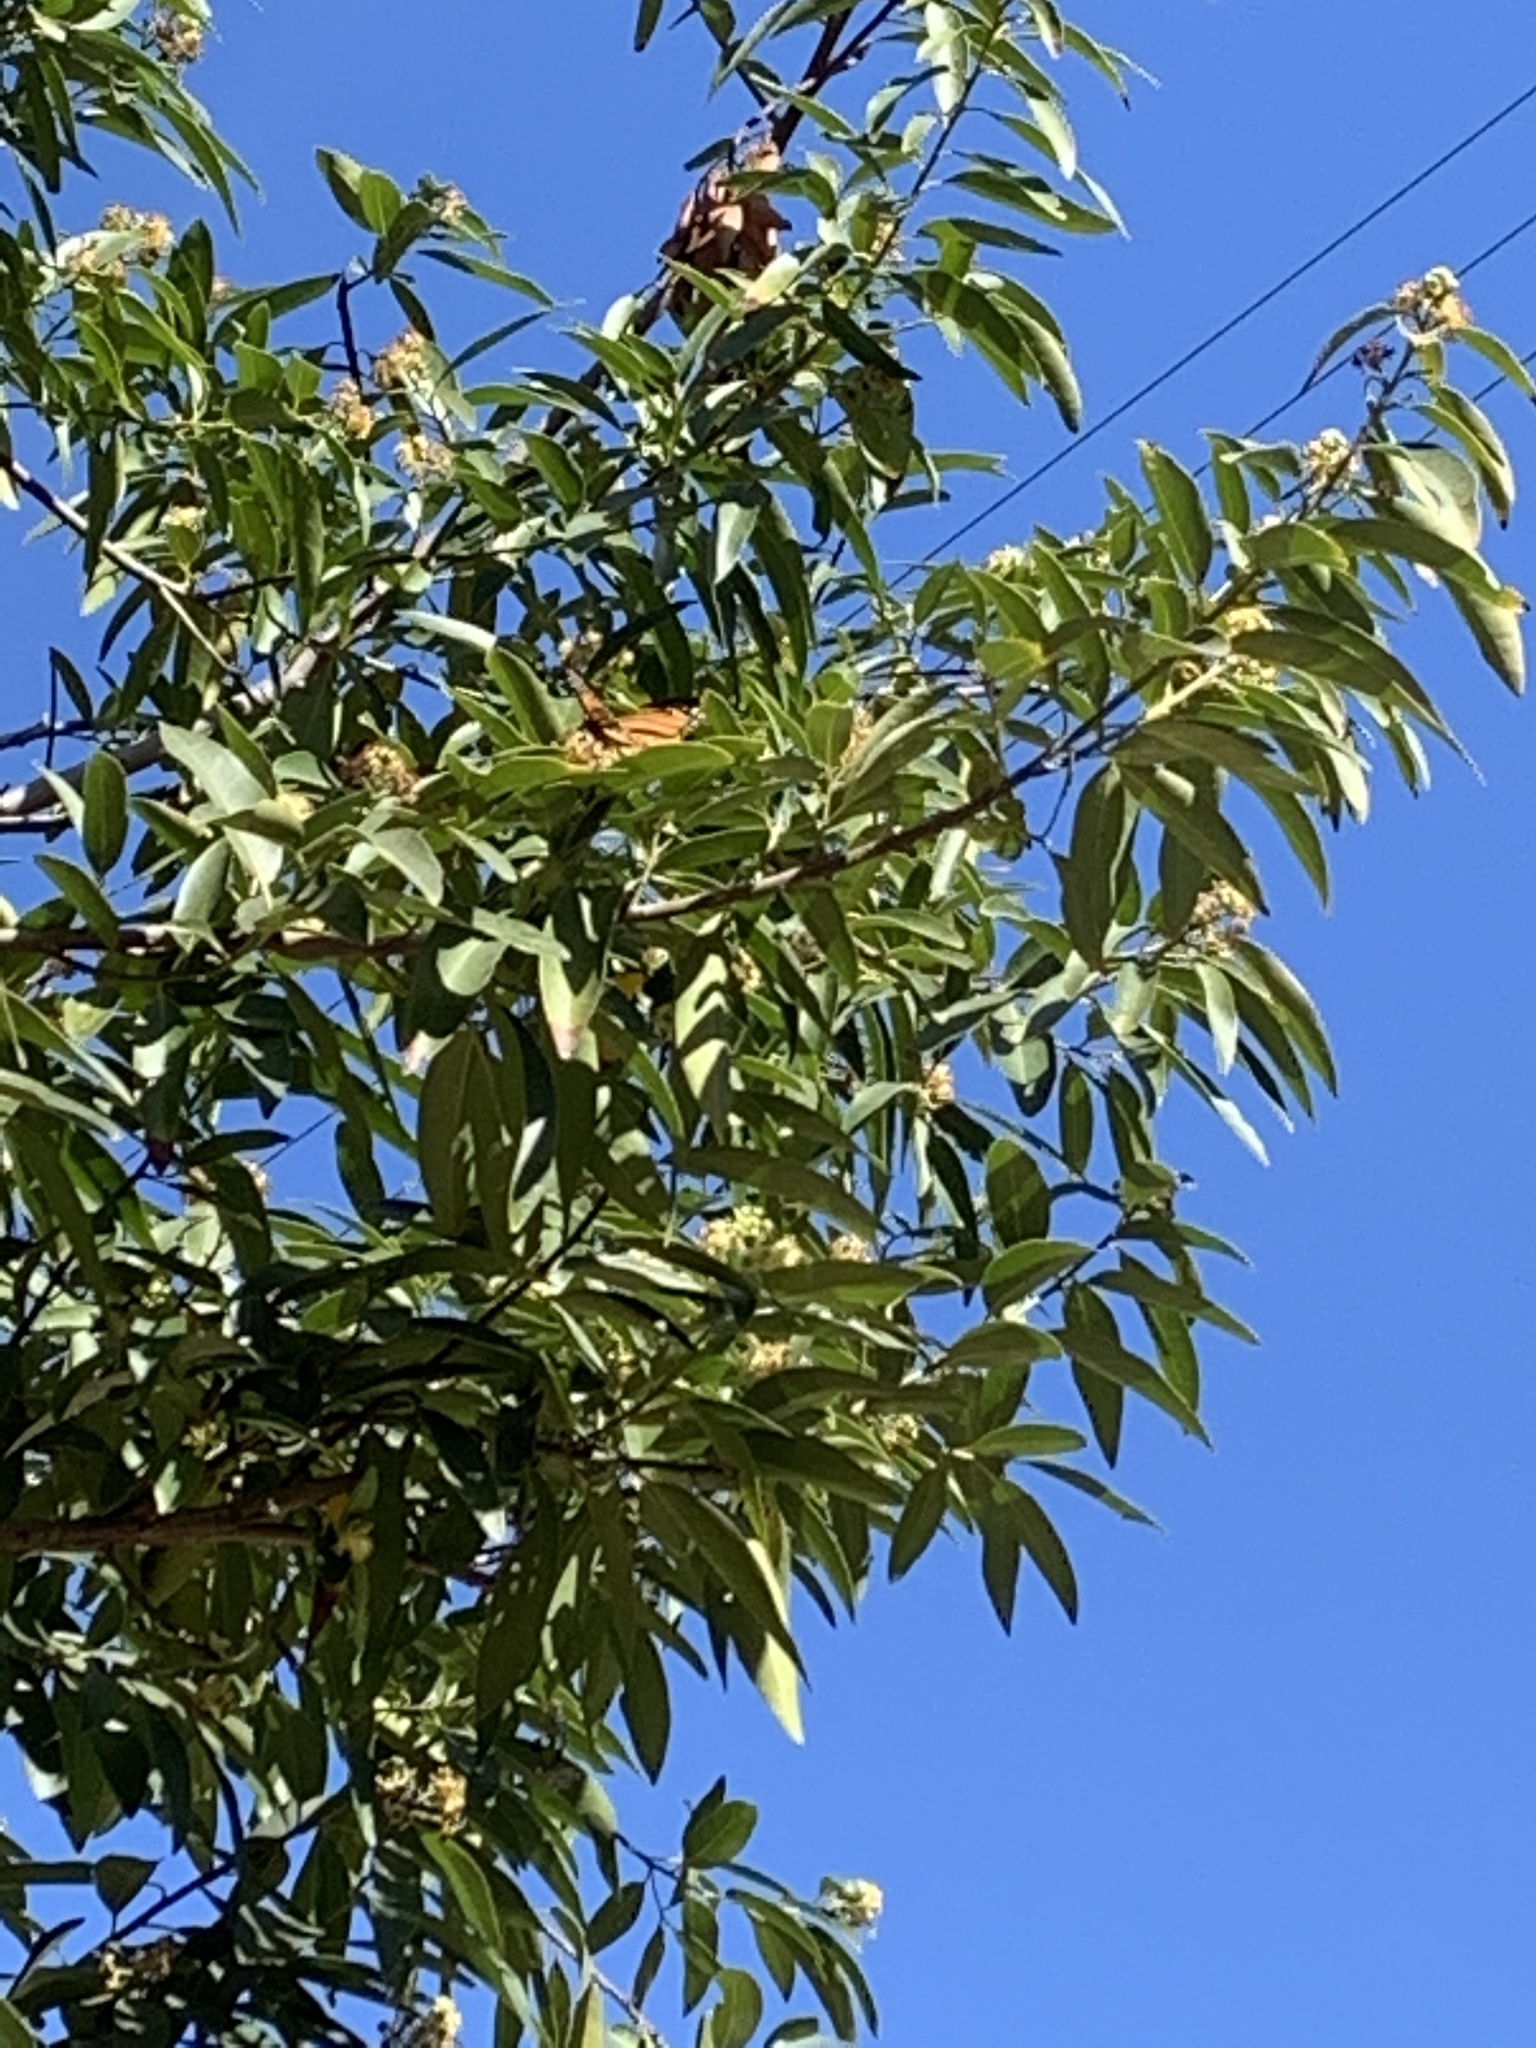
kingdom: Animalia
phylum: Arthropoda
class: Insecta
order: Lepidoptera
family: Nymphalidae
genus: Danaus
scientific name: Danaus plexippus
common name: Monarch
